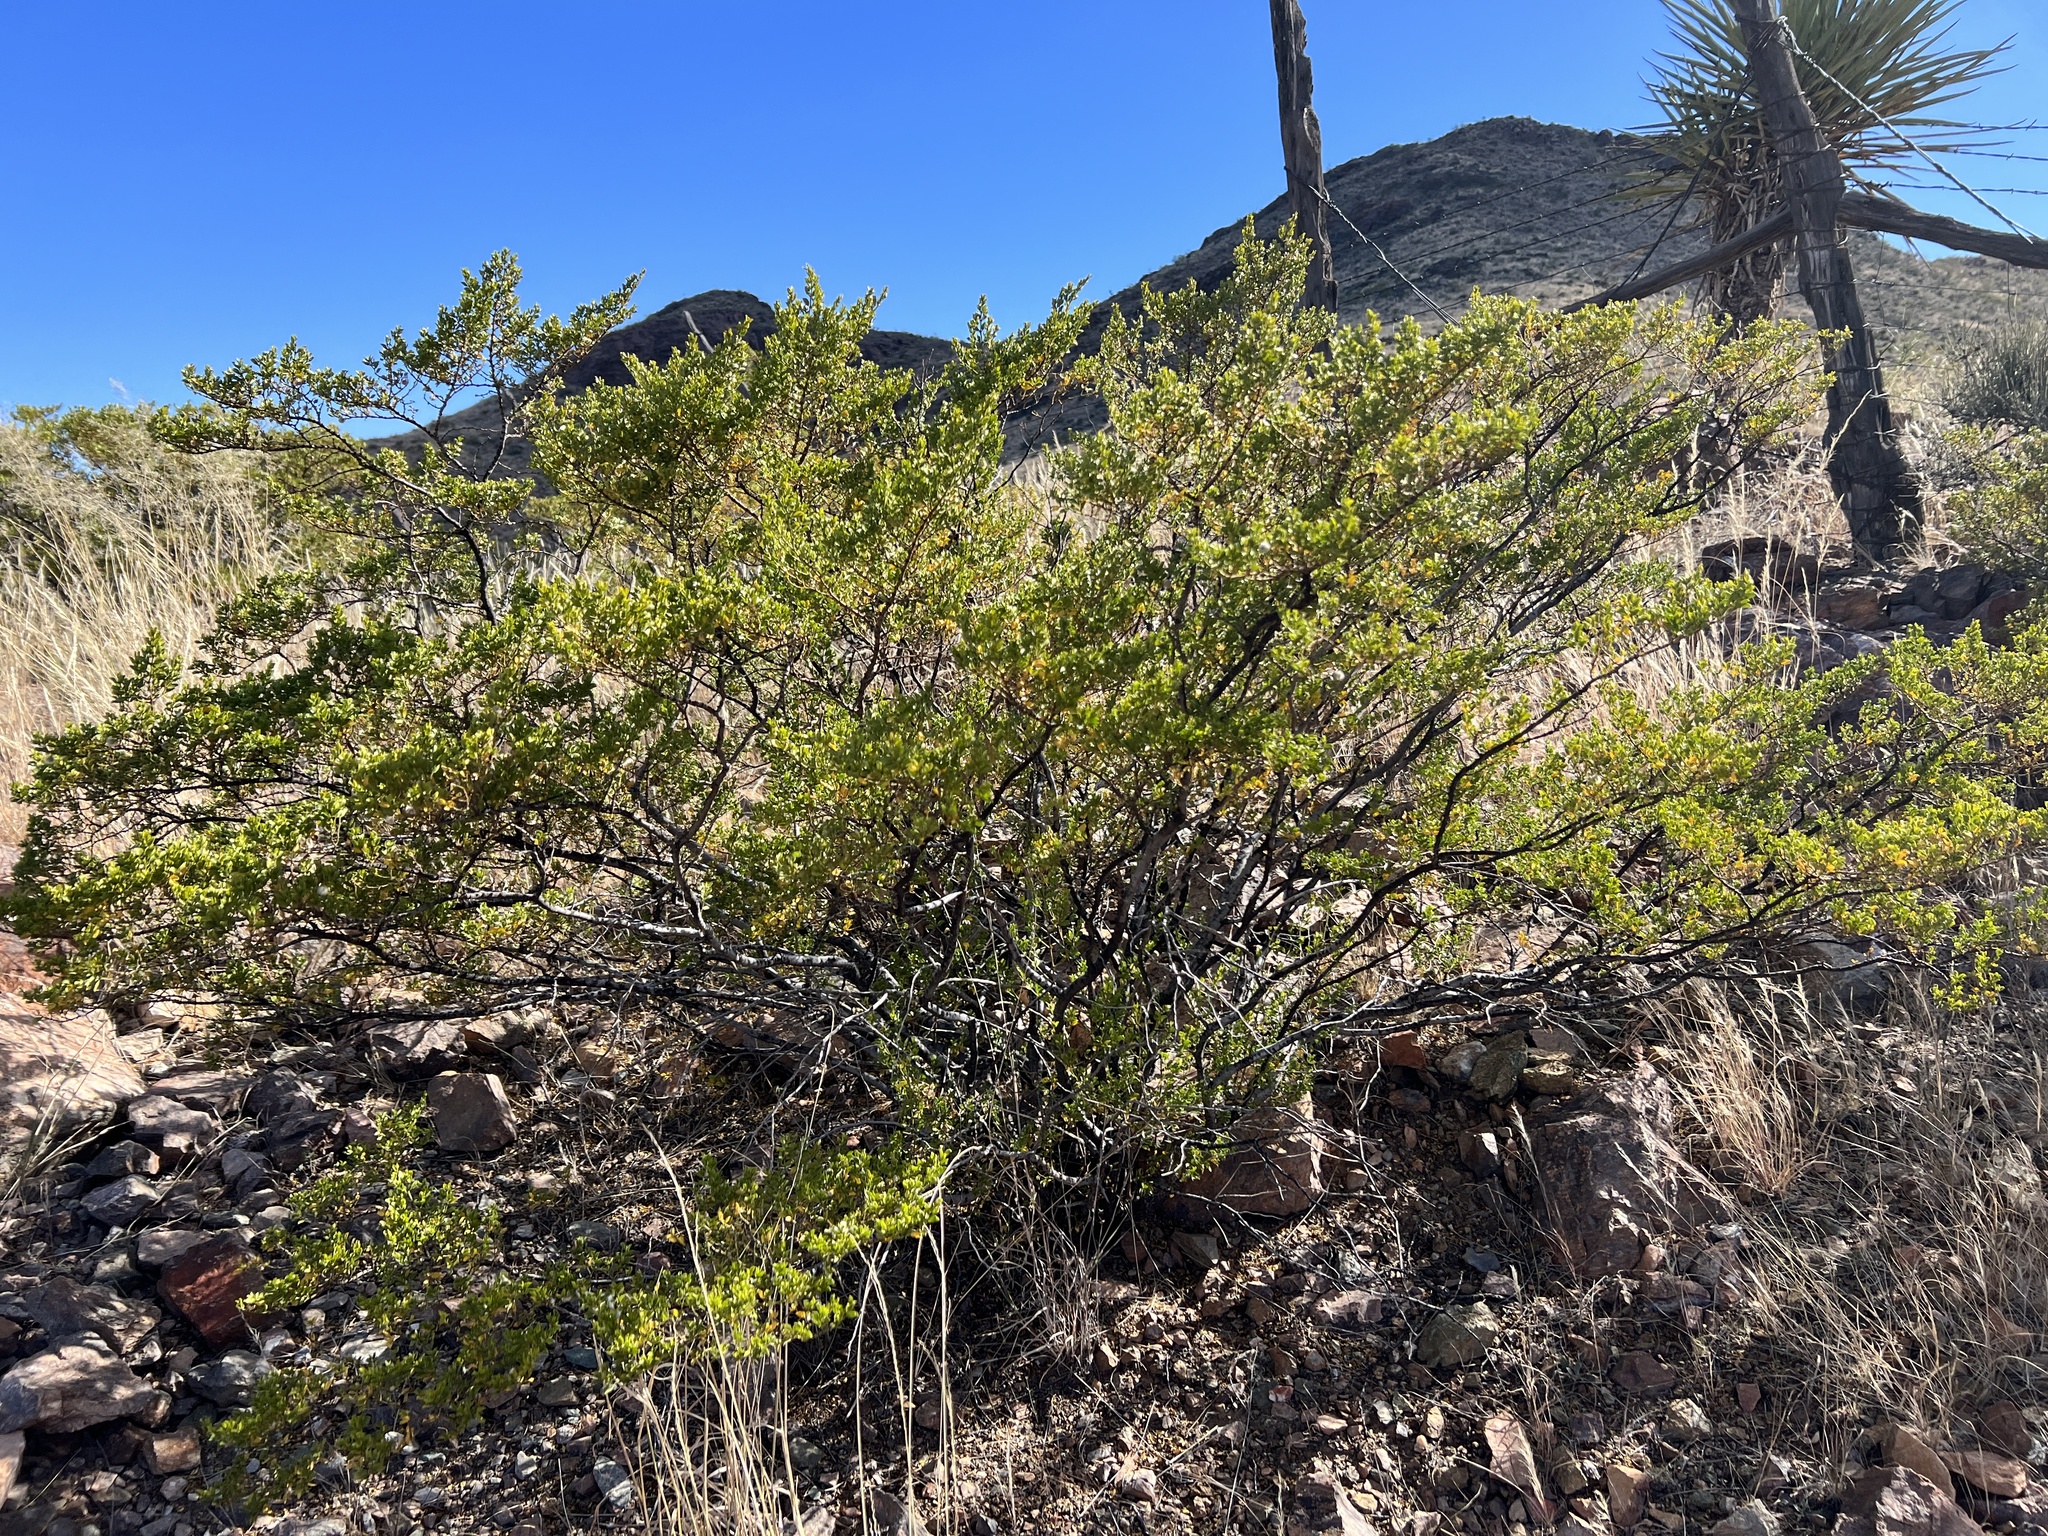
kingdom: Plantae
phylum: Tracheophyta
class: Magnoliopsida
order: Zygophyllales
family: Zygophyllaceae
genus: Larrea
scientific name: Larrea tridentata
